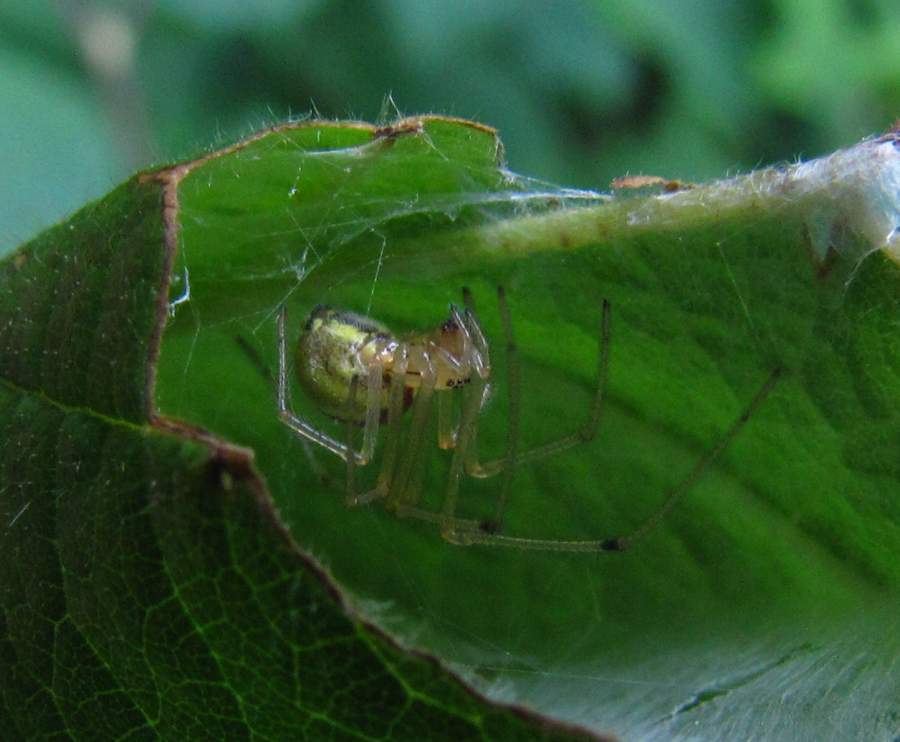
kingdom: Animalia
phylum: Arthropoda
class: Arachnida
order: Araneae
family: Theridiidae
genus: Enoplognatha
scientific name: Enoplognatha ovata
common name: Common candy-striped spider
